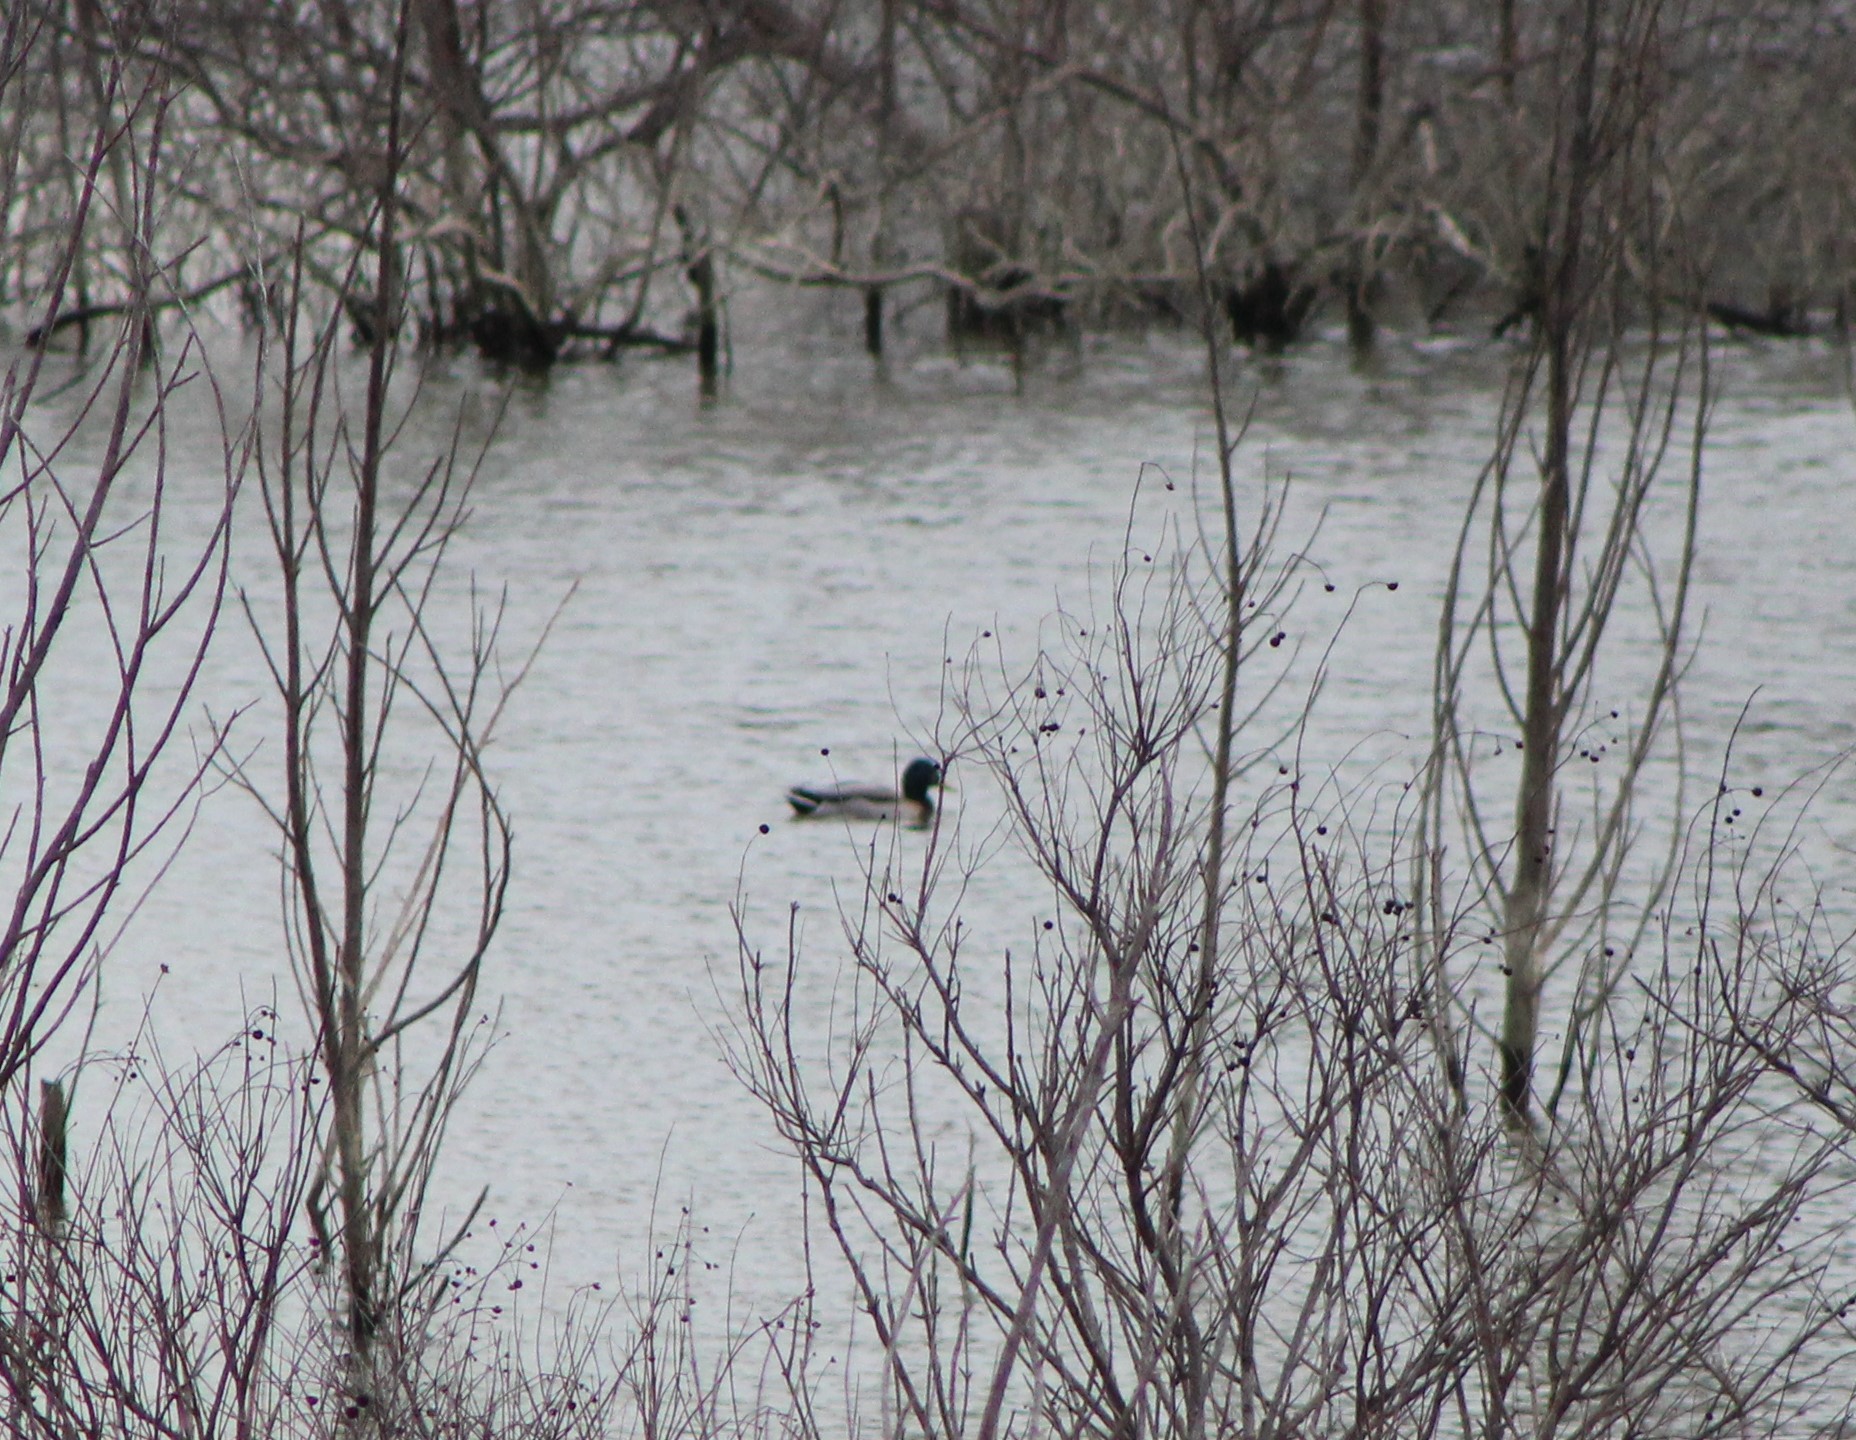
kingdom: Animalia
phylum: Chordata
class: Aves
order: Anseriformes
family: Anatidae
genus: Anas
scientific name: Anas platyrhynchos
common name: Mallard
